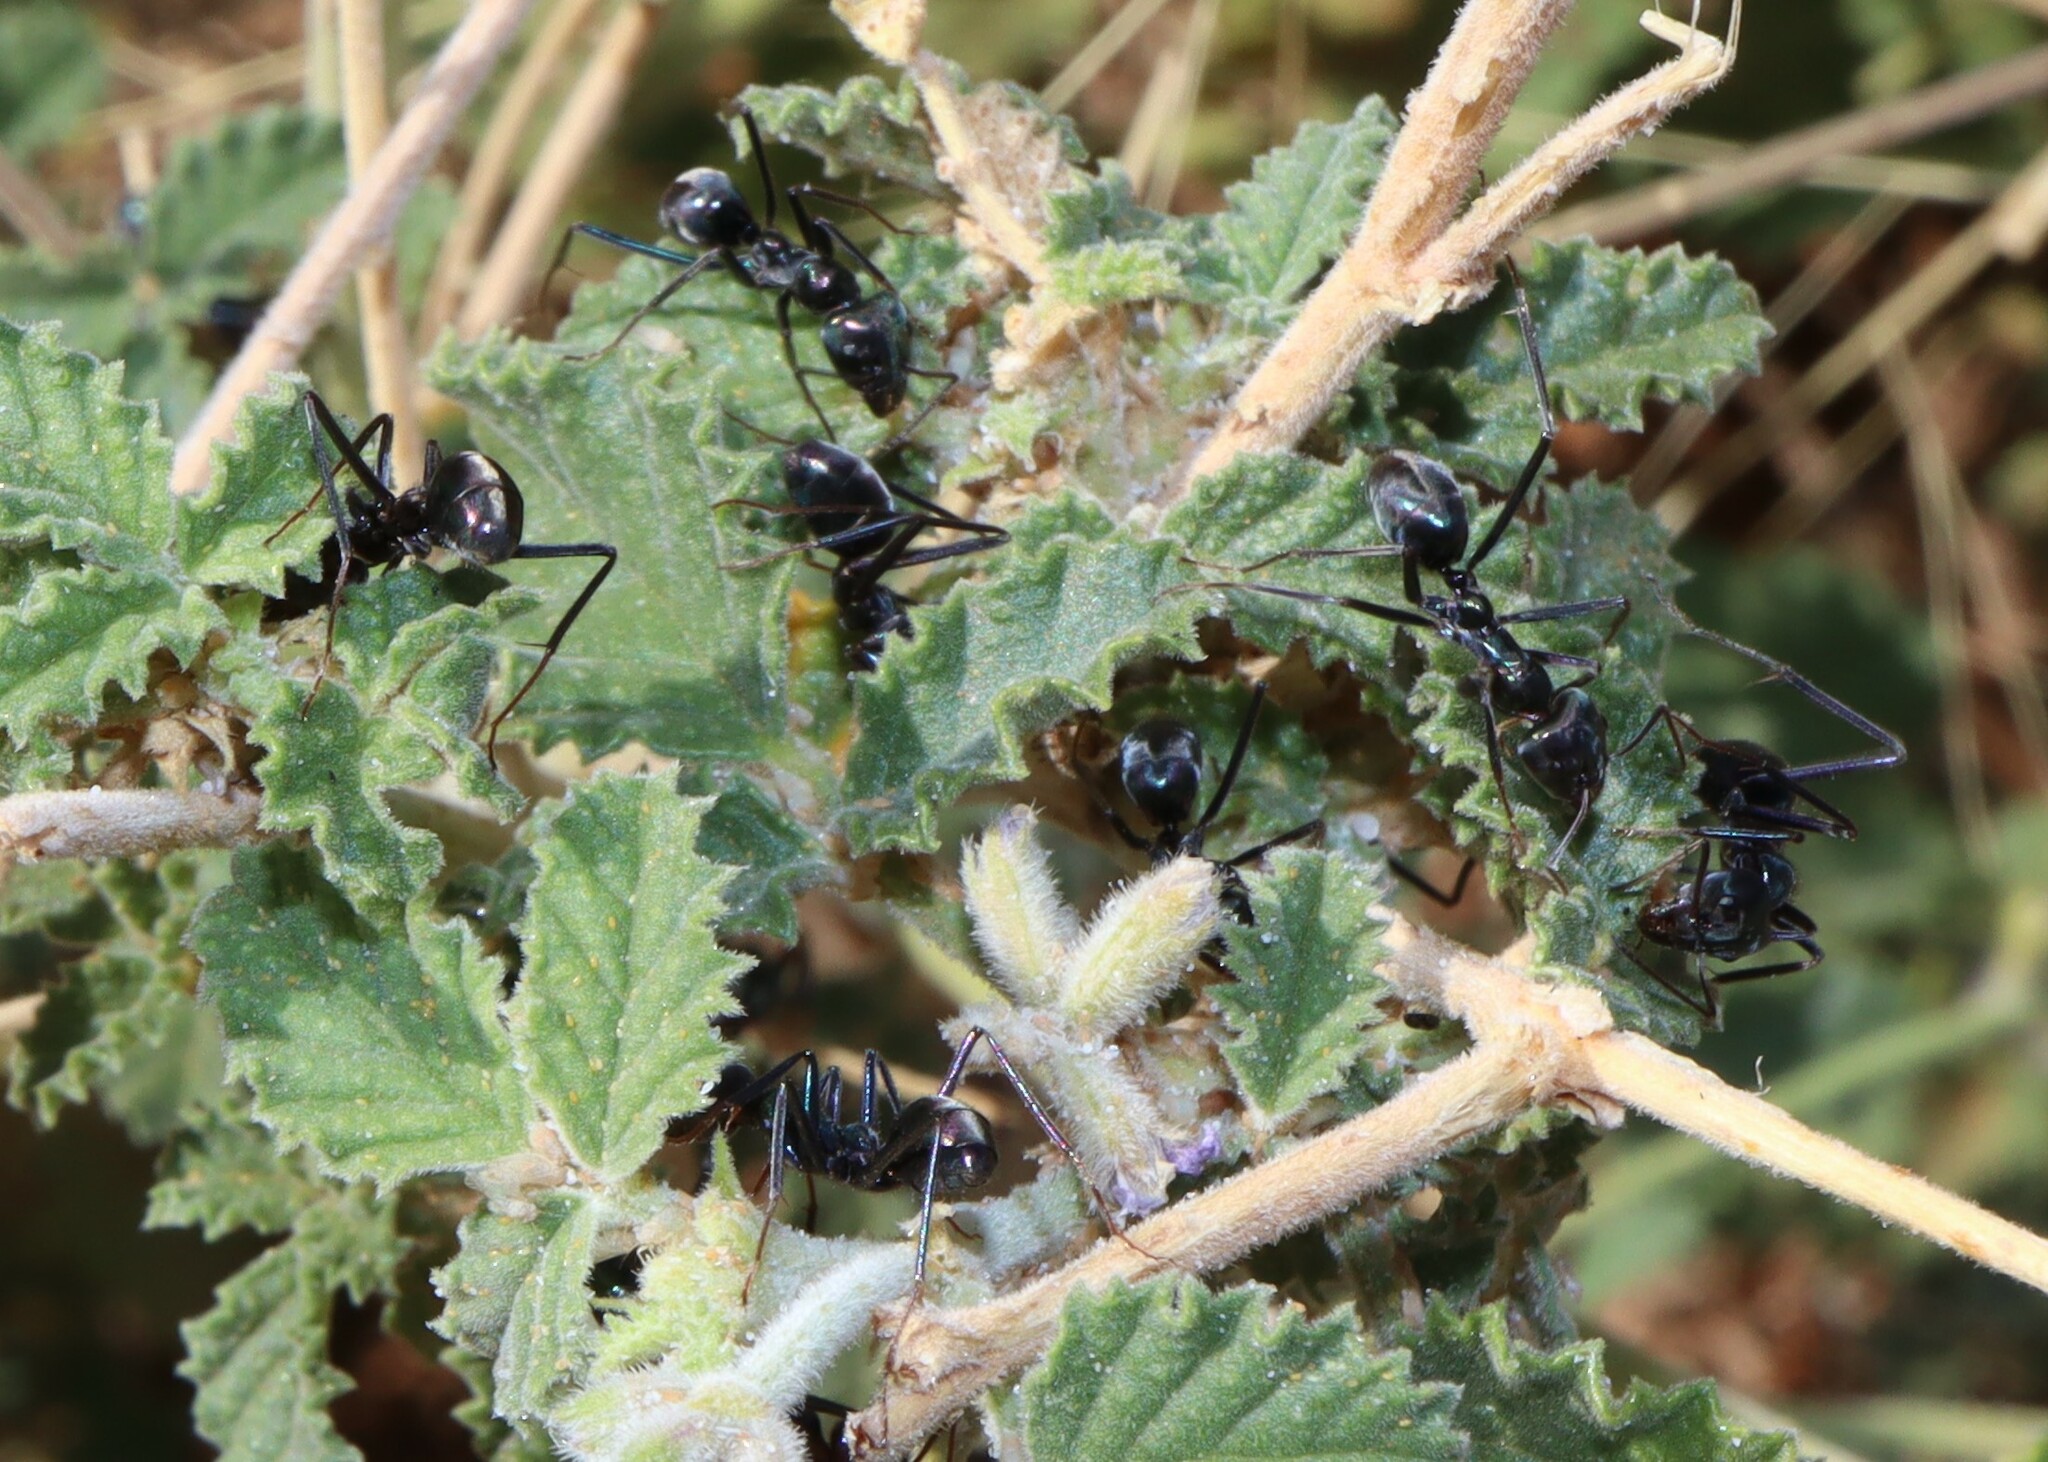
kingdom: Animalia
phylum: Arthropoda
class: Insecta
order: Hymenoptera
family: Formicidae
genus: Iridomyrmex
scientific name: Iridomyrmex viridiaeneus
